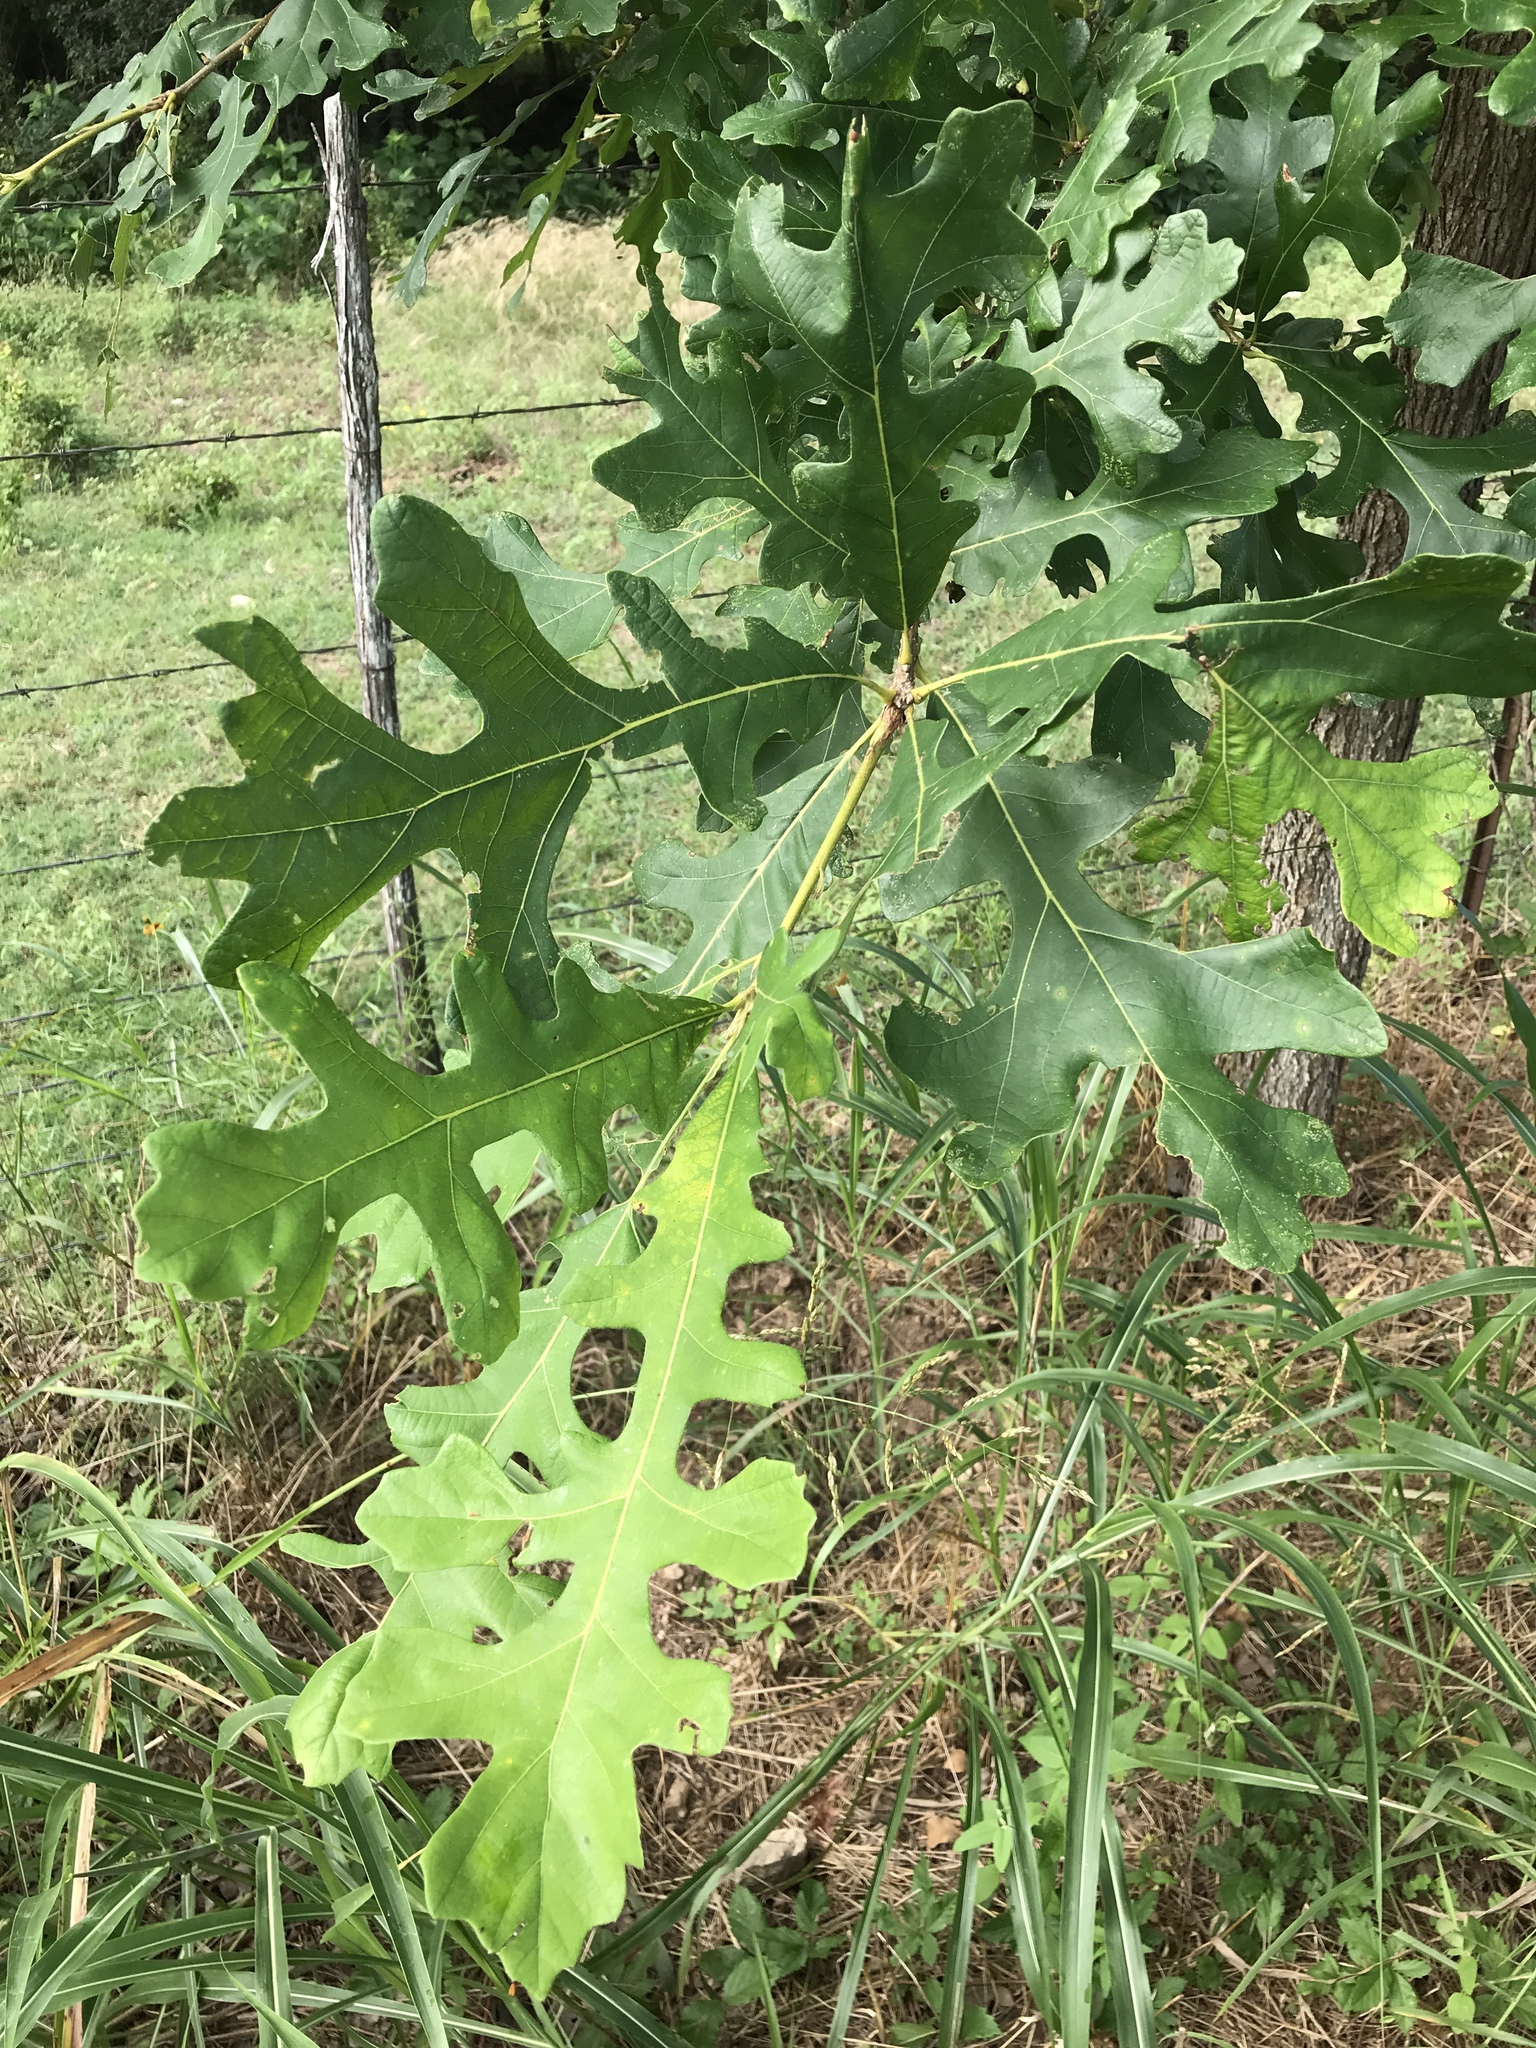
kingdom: Plantae
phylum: Tracheophyta
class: Magnoliopsida
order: Fagales
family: Fagaceae
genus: Quercus
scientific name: Quercus macrocarpa
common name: Bur oak
